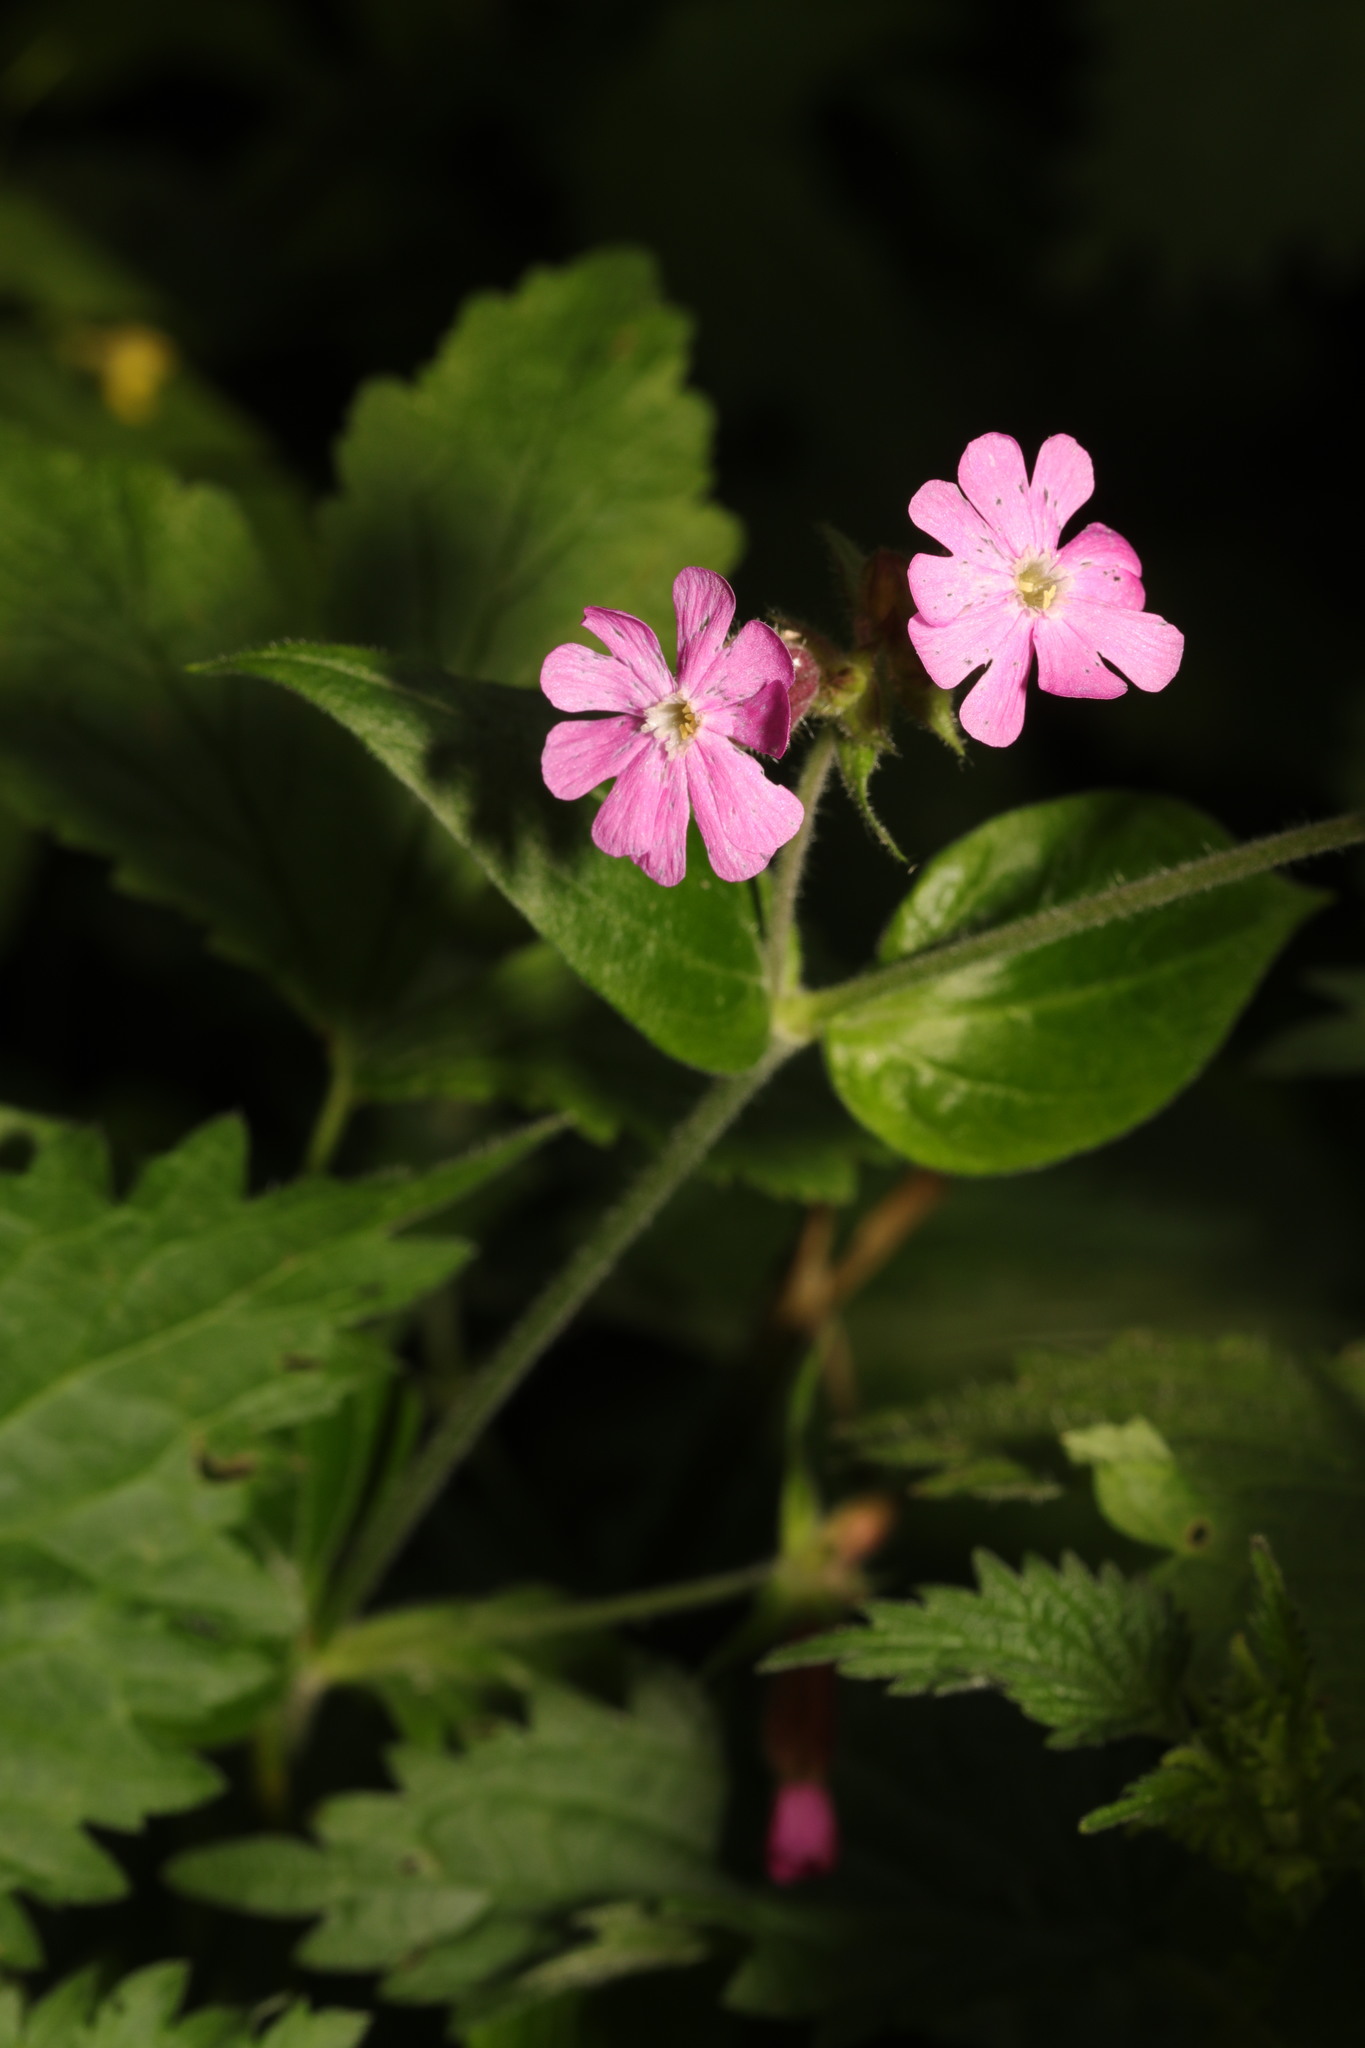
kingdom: Plantae
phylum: Tracheophyta
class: Magnoliopsida
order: Caryophyllales
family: Caryophyllaceae
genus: Silene
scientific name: Silene dioica
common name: Red campion
